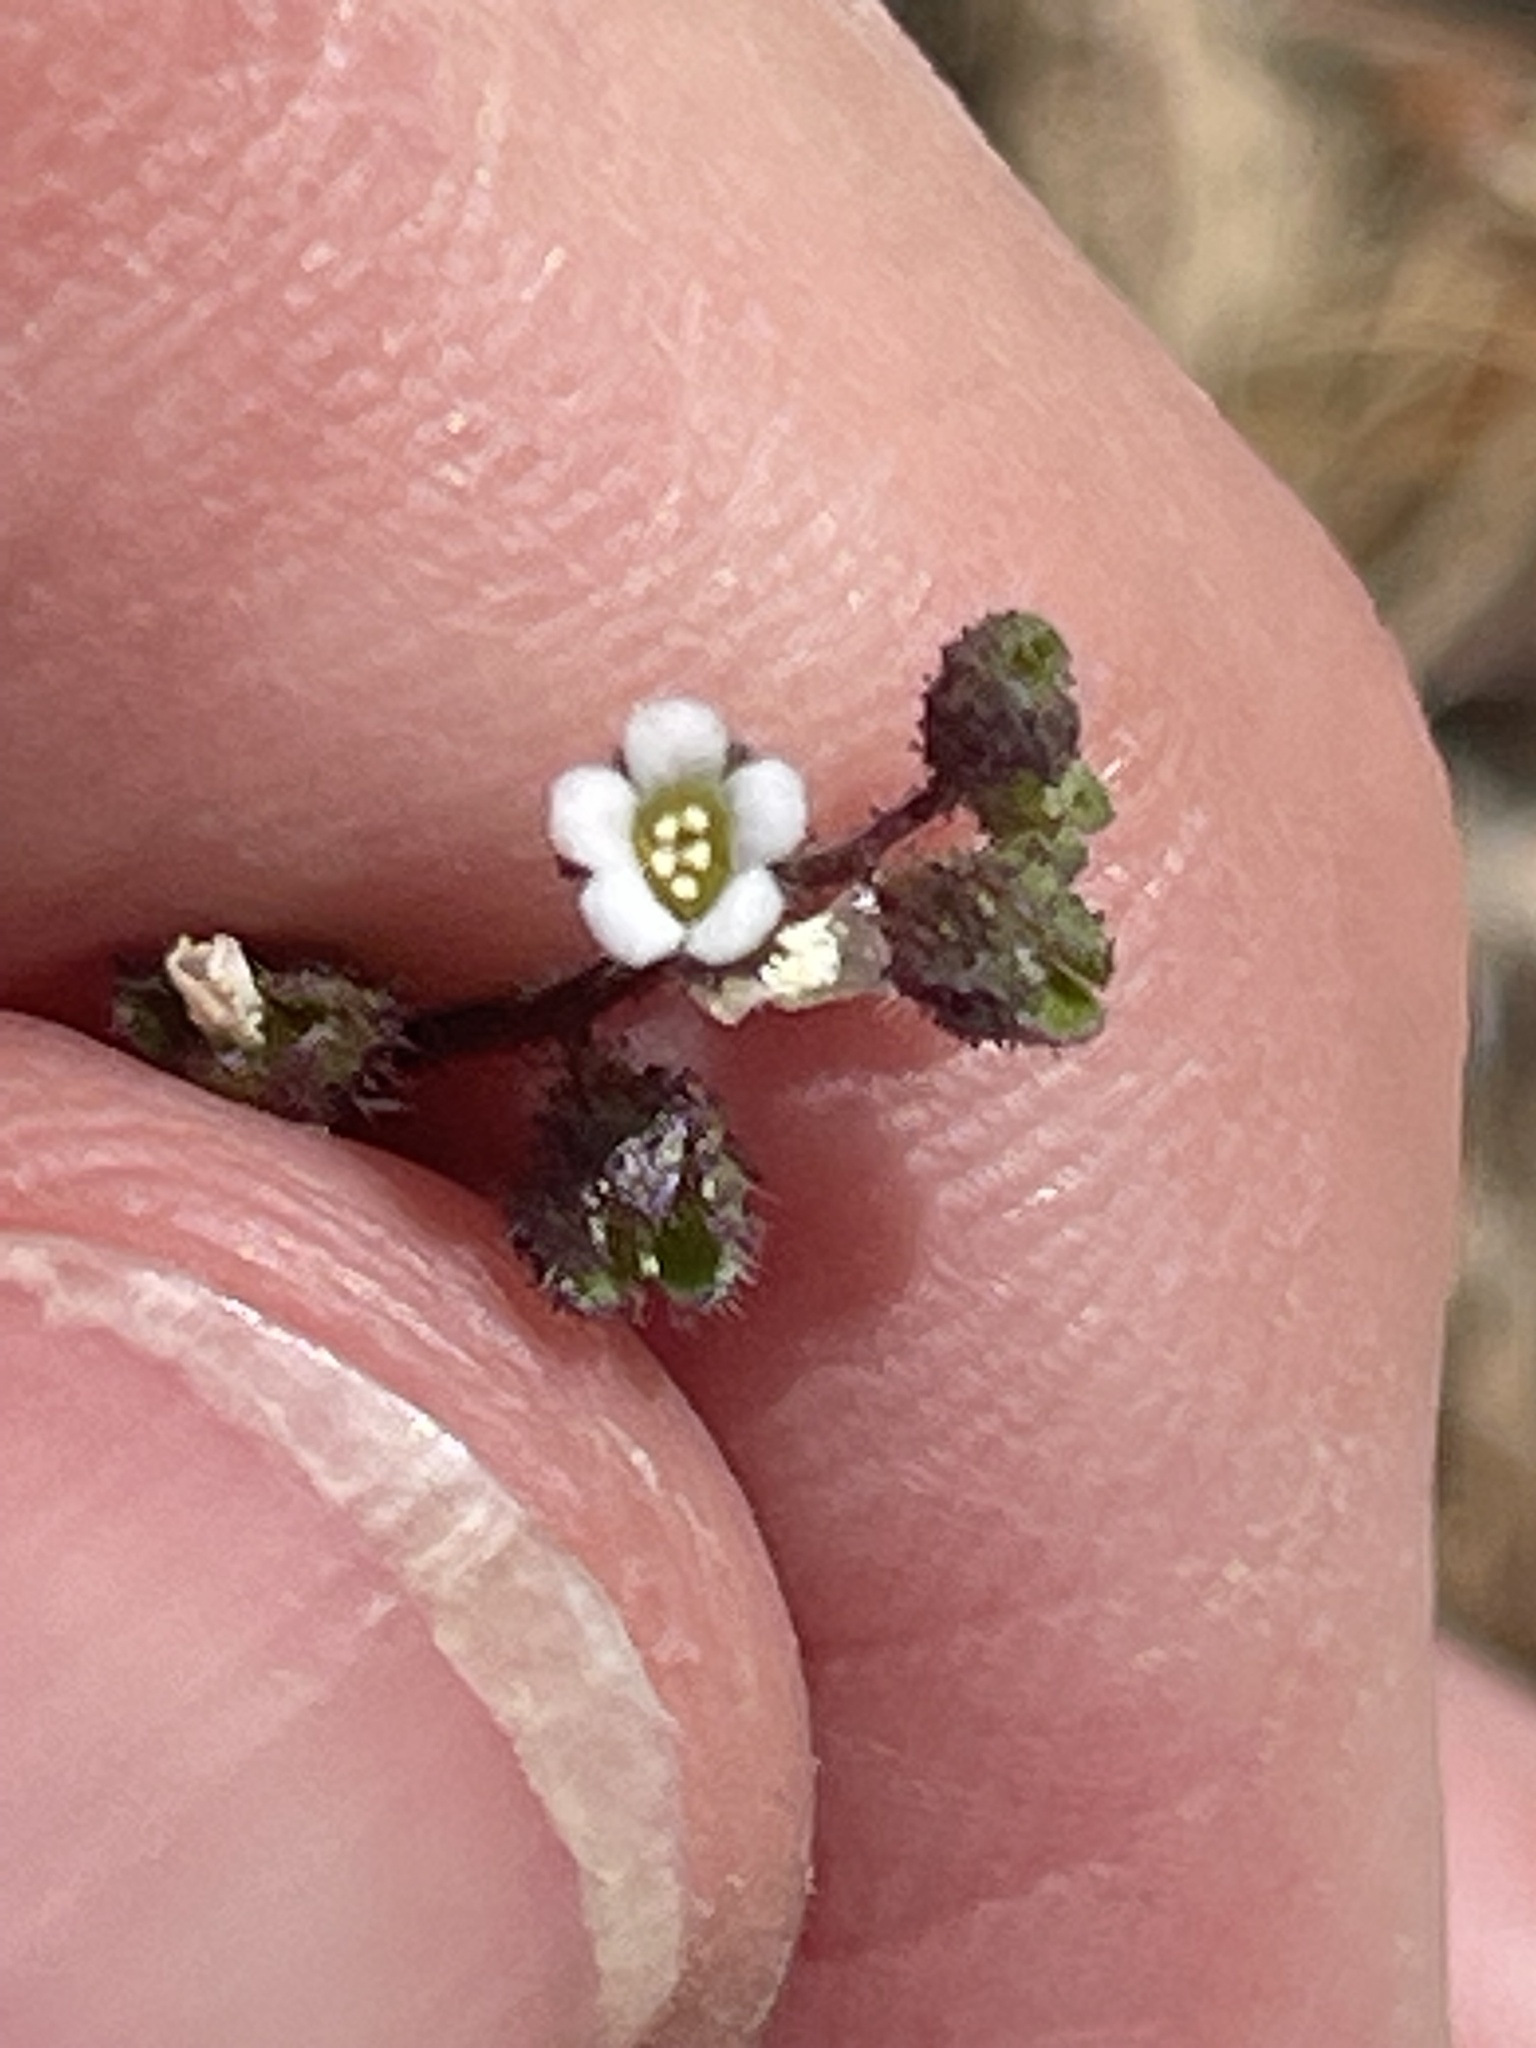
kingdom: Plantae
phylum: Tracheophyta
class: Magnoliopsida
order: Boraginales
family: Hydrophyllaceae
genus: Eucrypta
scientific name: Eucrypta micrantha
